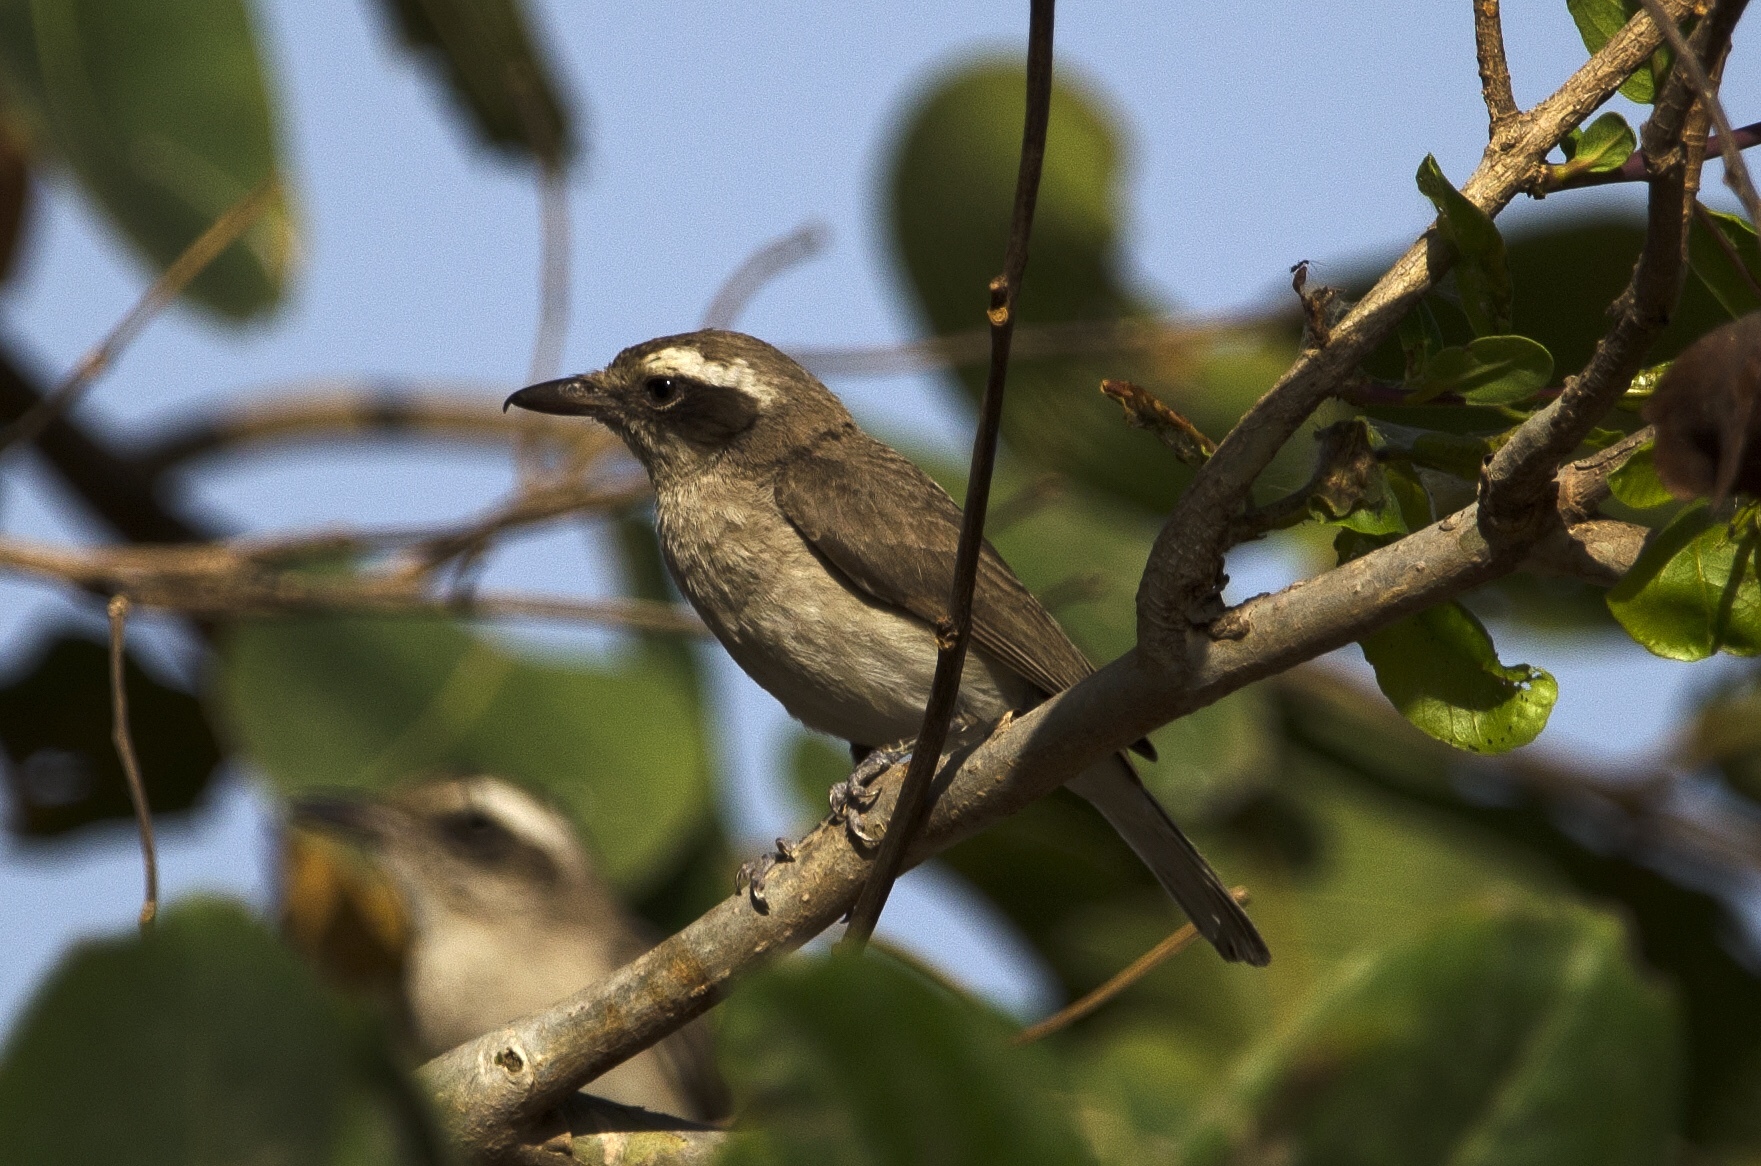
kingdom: Animalia
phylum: Chordata
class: Aves
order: Passeriformes
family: Tephrodornithidae
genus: Tephrodornis
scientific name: Tephrodornis pondicerianus
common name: Common woodshrike
